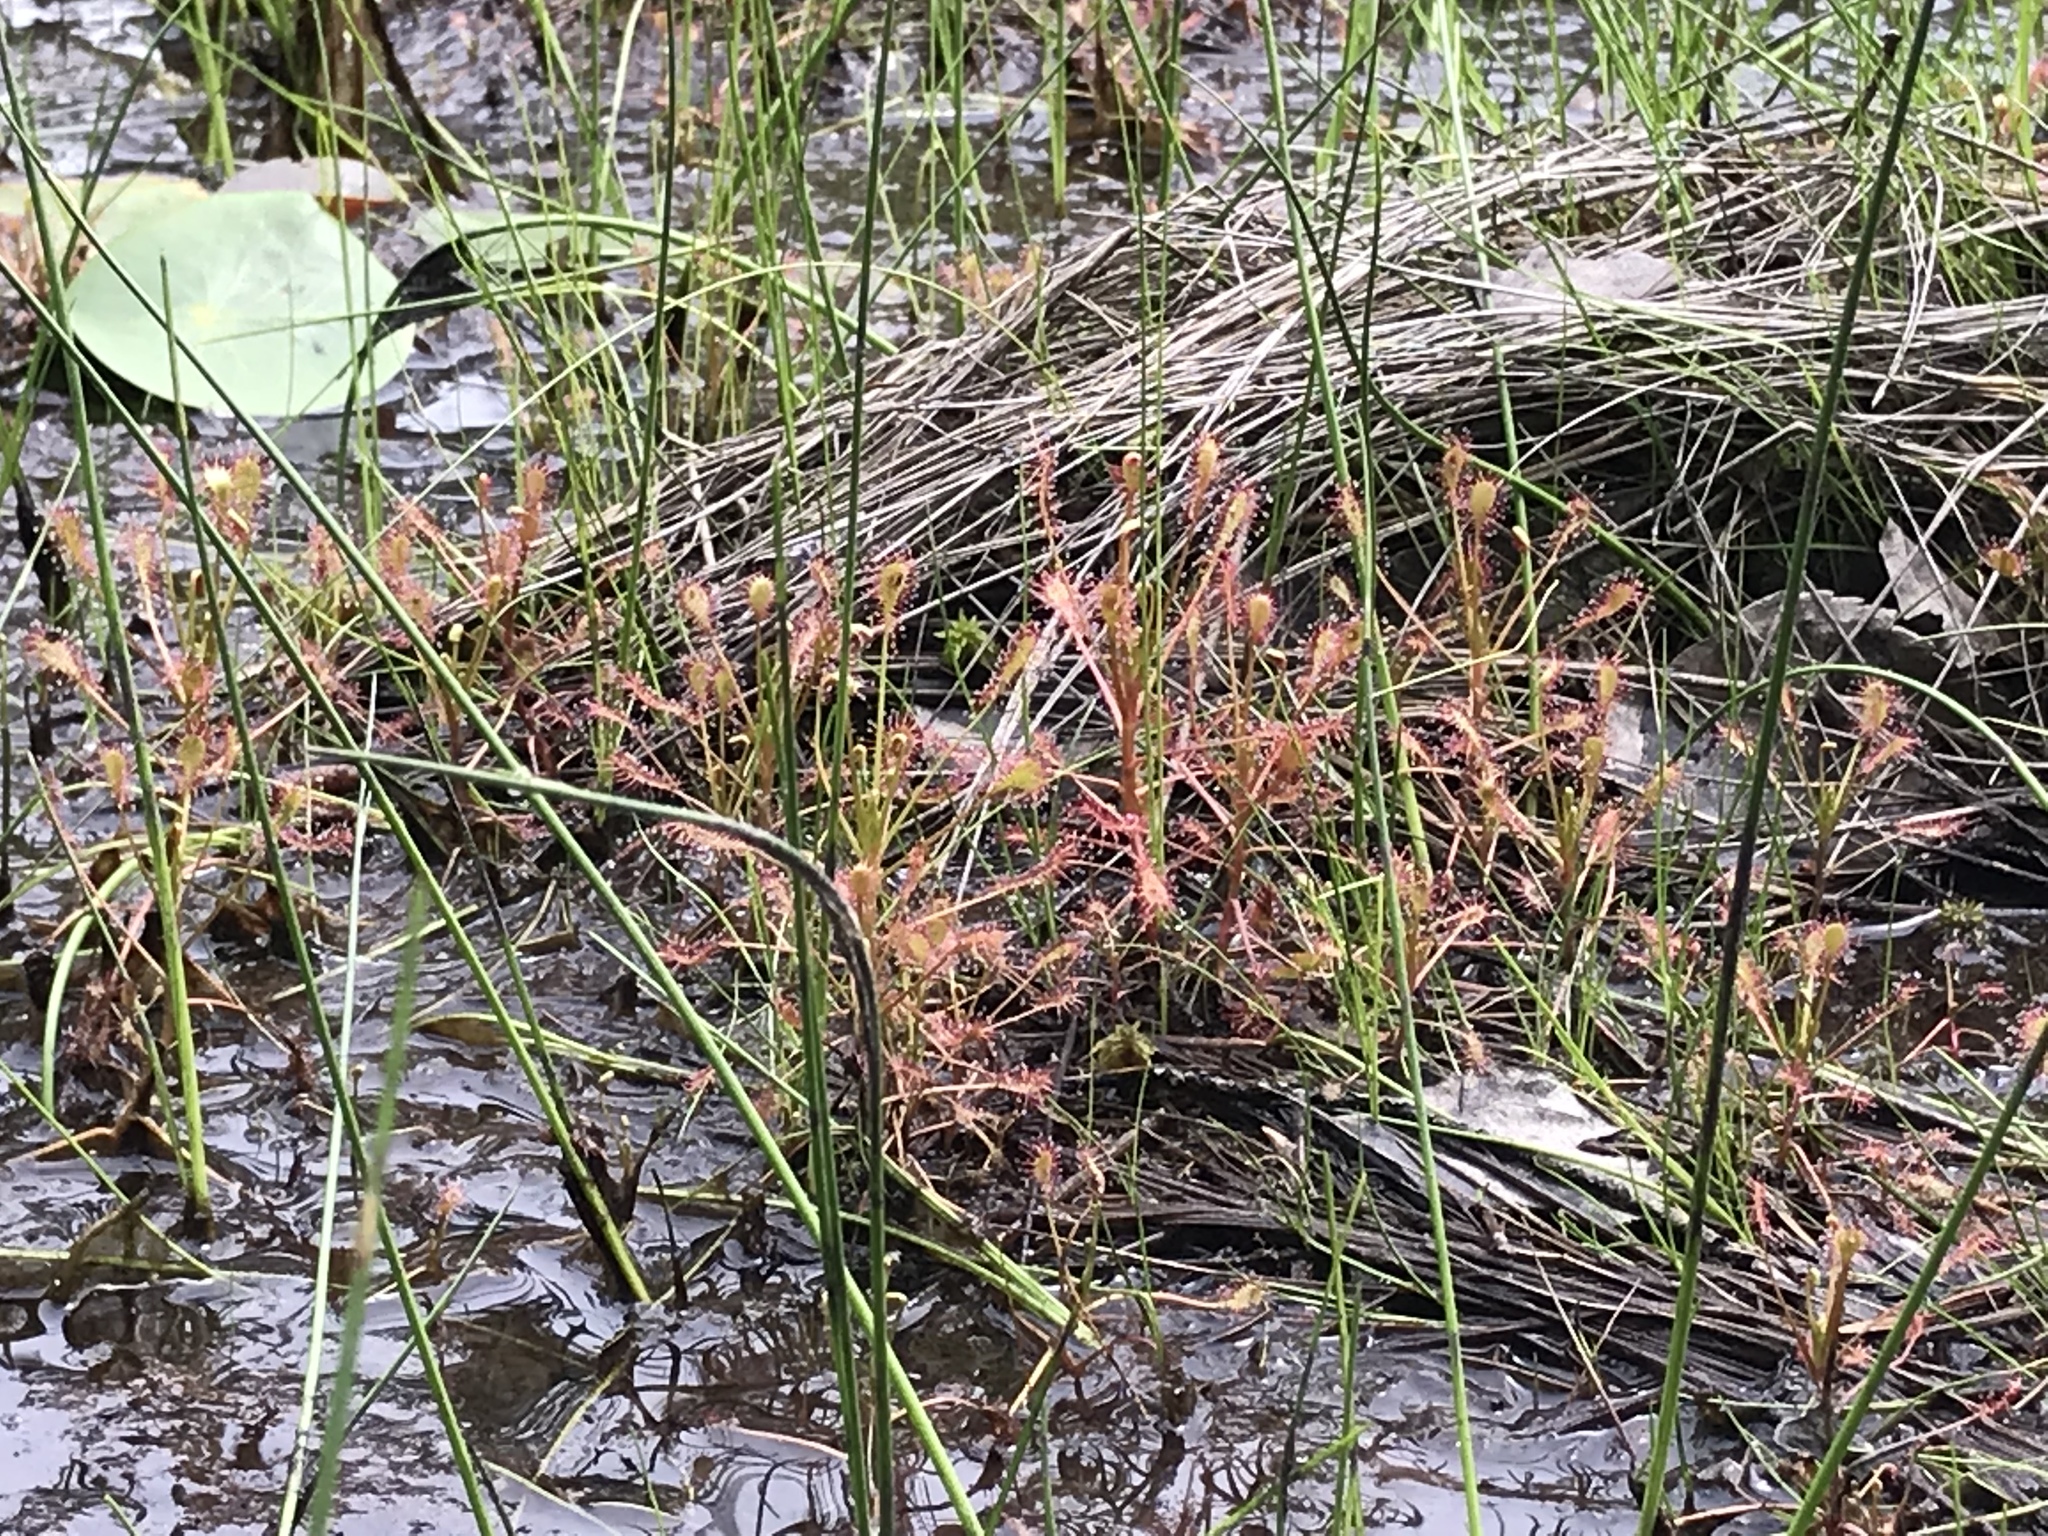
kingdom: Plantae
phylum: Tracheophyta
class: Magnoliopsida
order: Caryophyllales
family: Droseraceae
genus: Drosera
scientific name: Drosera intermedia
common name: Oblong-leaved sundew
